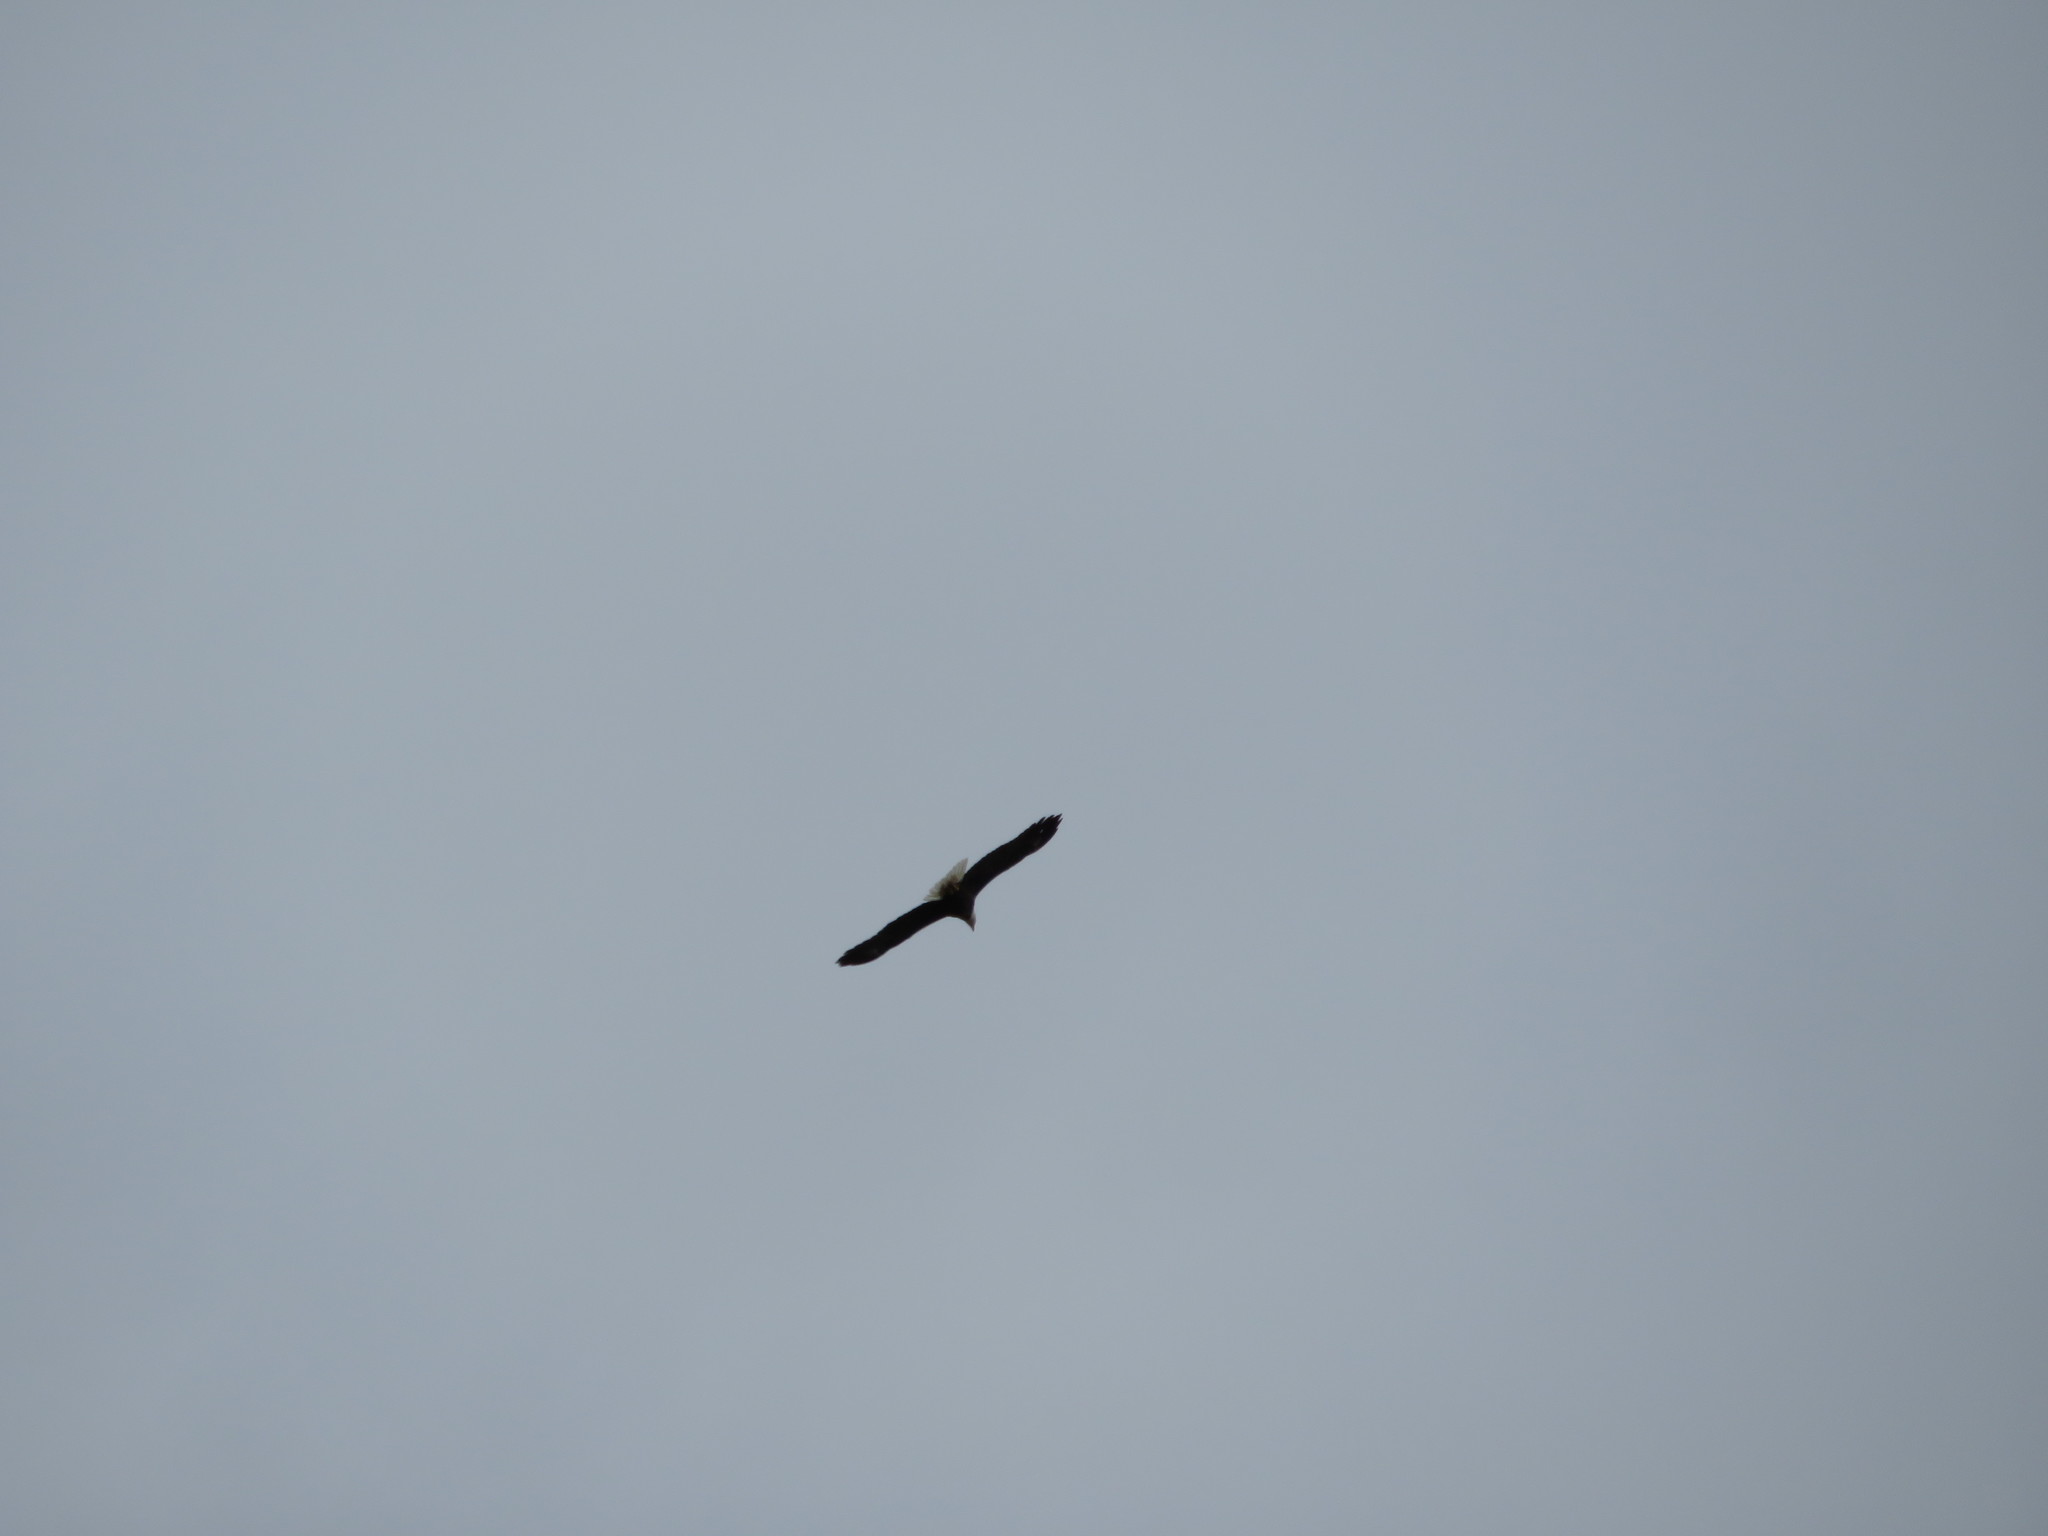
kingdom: Animalia
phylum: Chordata
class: Aves
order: Accipitriformes
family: Accipitridae
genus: Haliaeetus
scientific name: Haliaeetus leucocephalus
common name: Bald eagle
